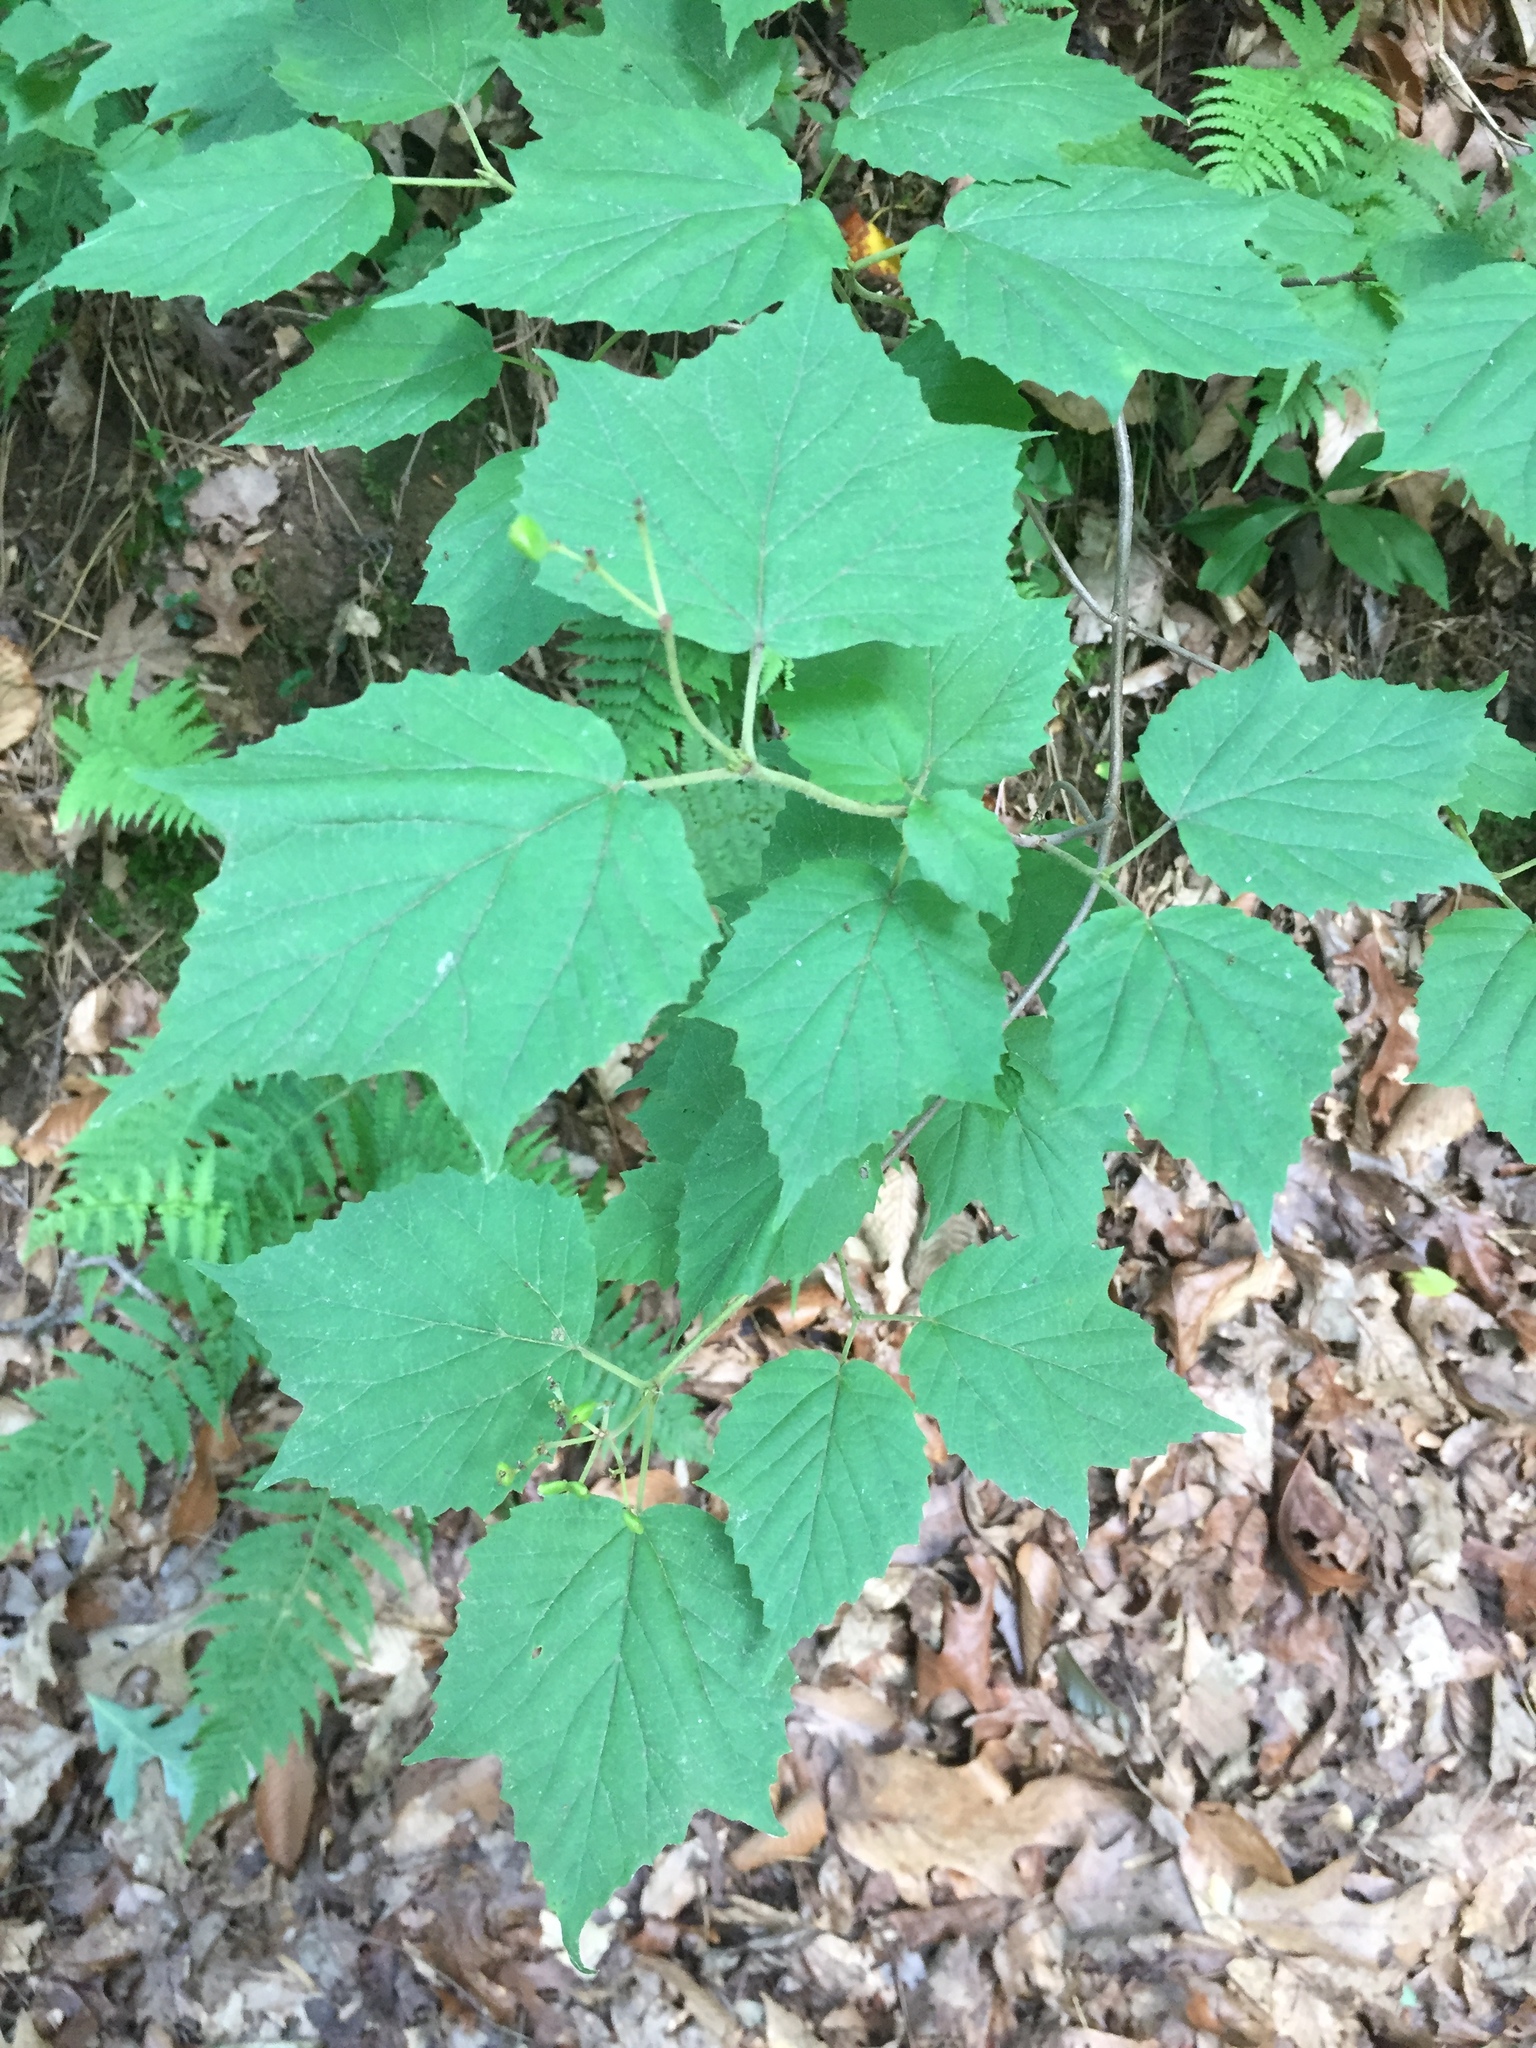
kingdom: Plantae
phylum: Tracheophyta
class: Magnoliopsida
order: Dipsacales
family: Viburnaceae
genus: Viburnum
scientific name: Viburnum acerifolium
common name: Dockmackie
